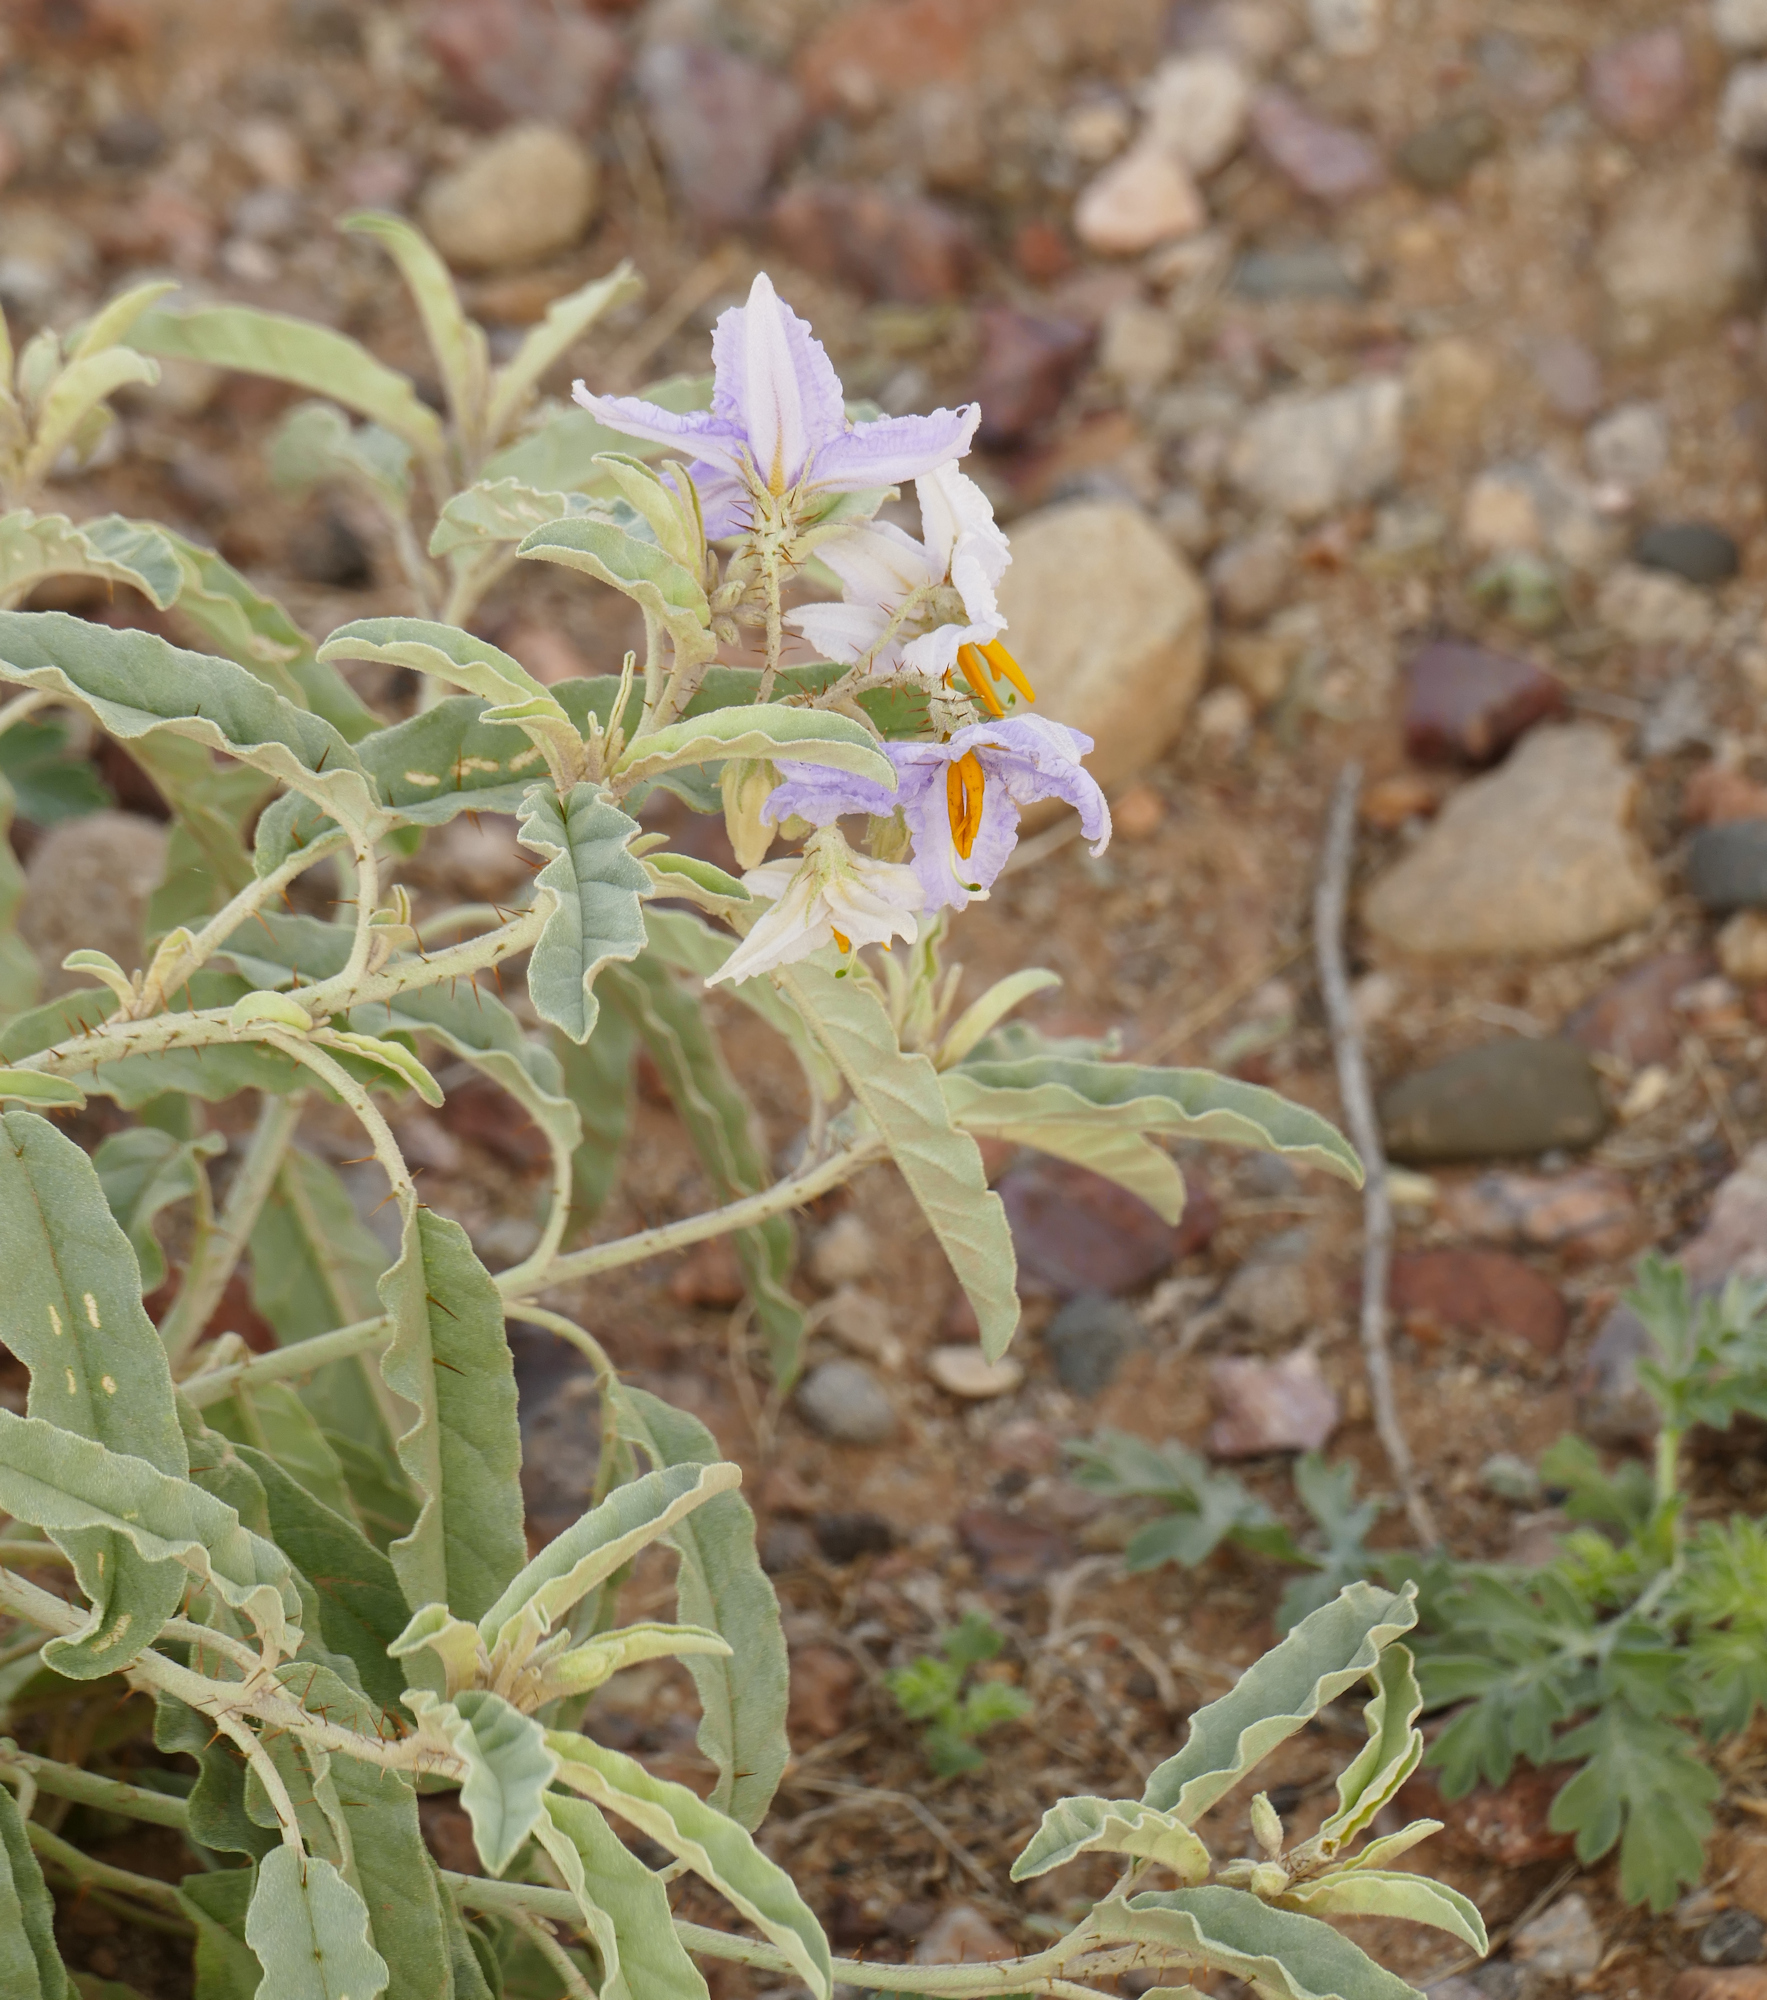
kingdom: Plantae
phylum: Tracheophyta
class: Magnoliopsida
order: Solanales
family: Solanaceae
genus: Solanum
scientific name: Solanum elaeagnifolium
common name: Silverleaf nightshade
